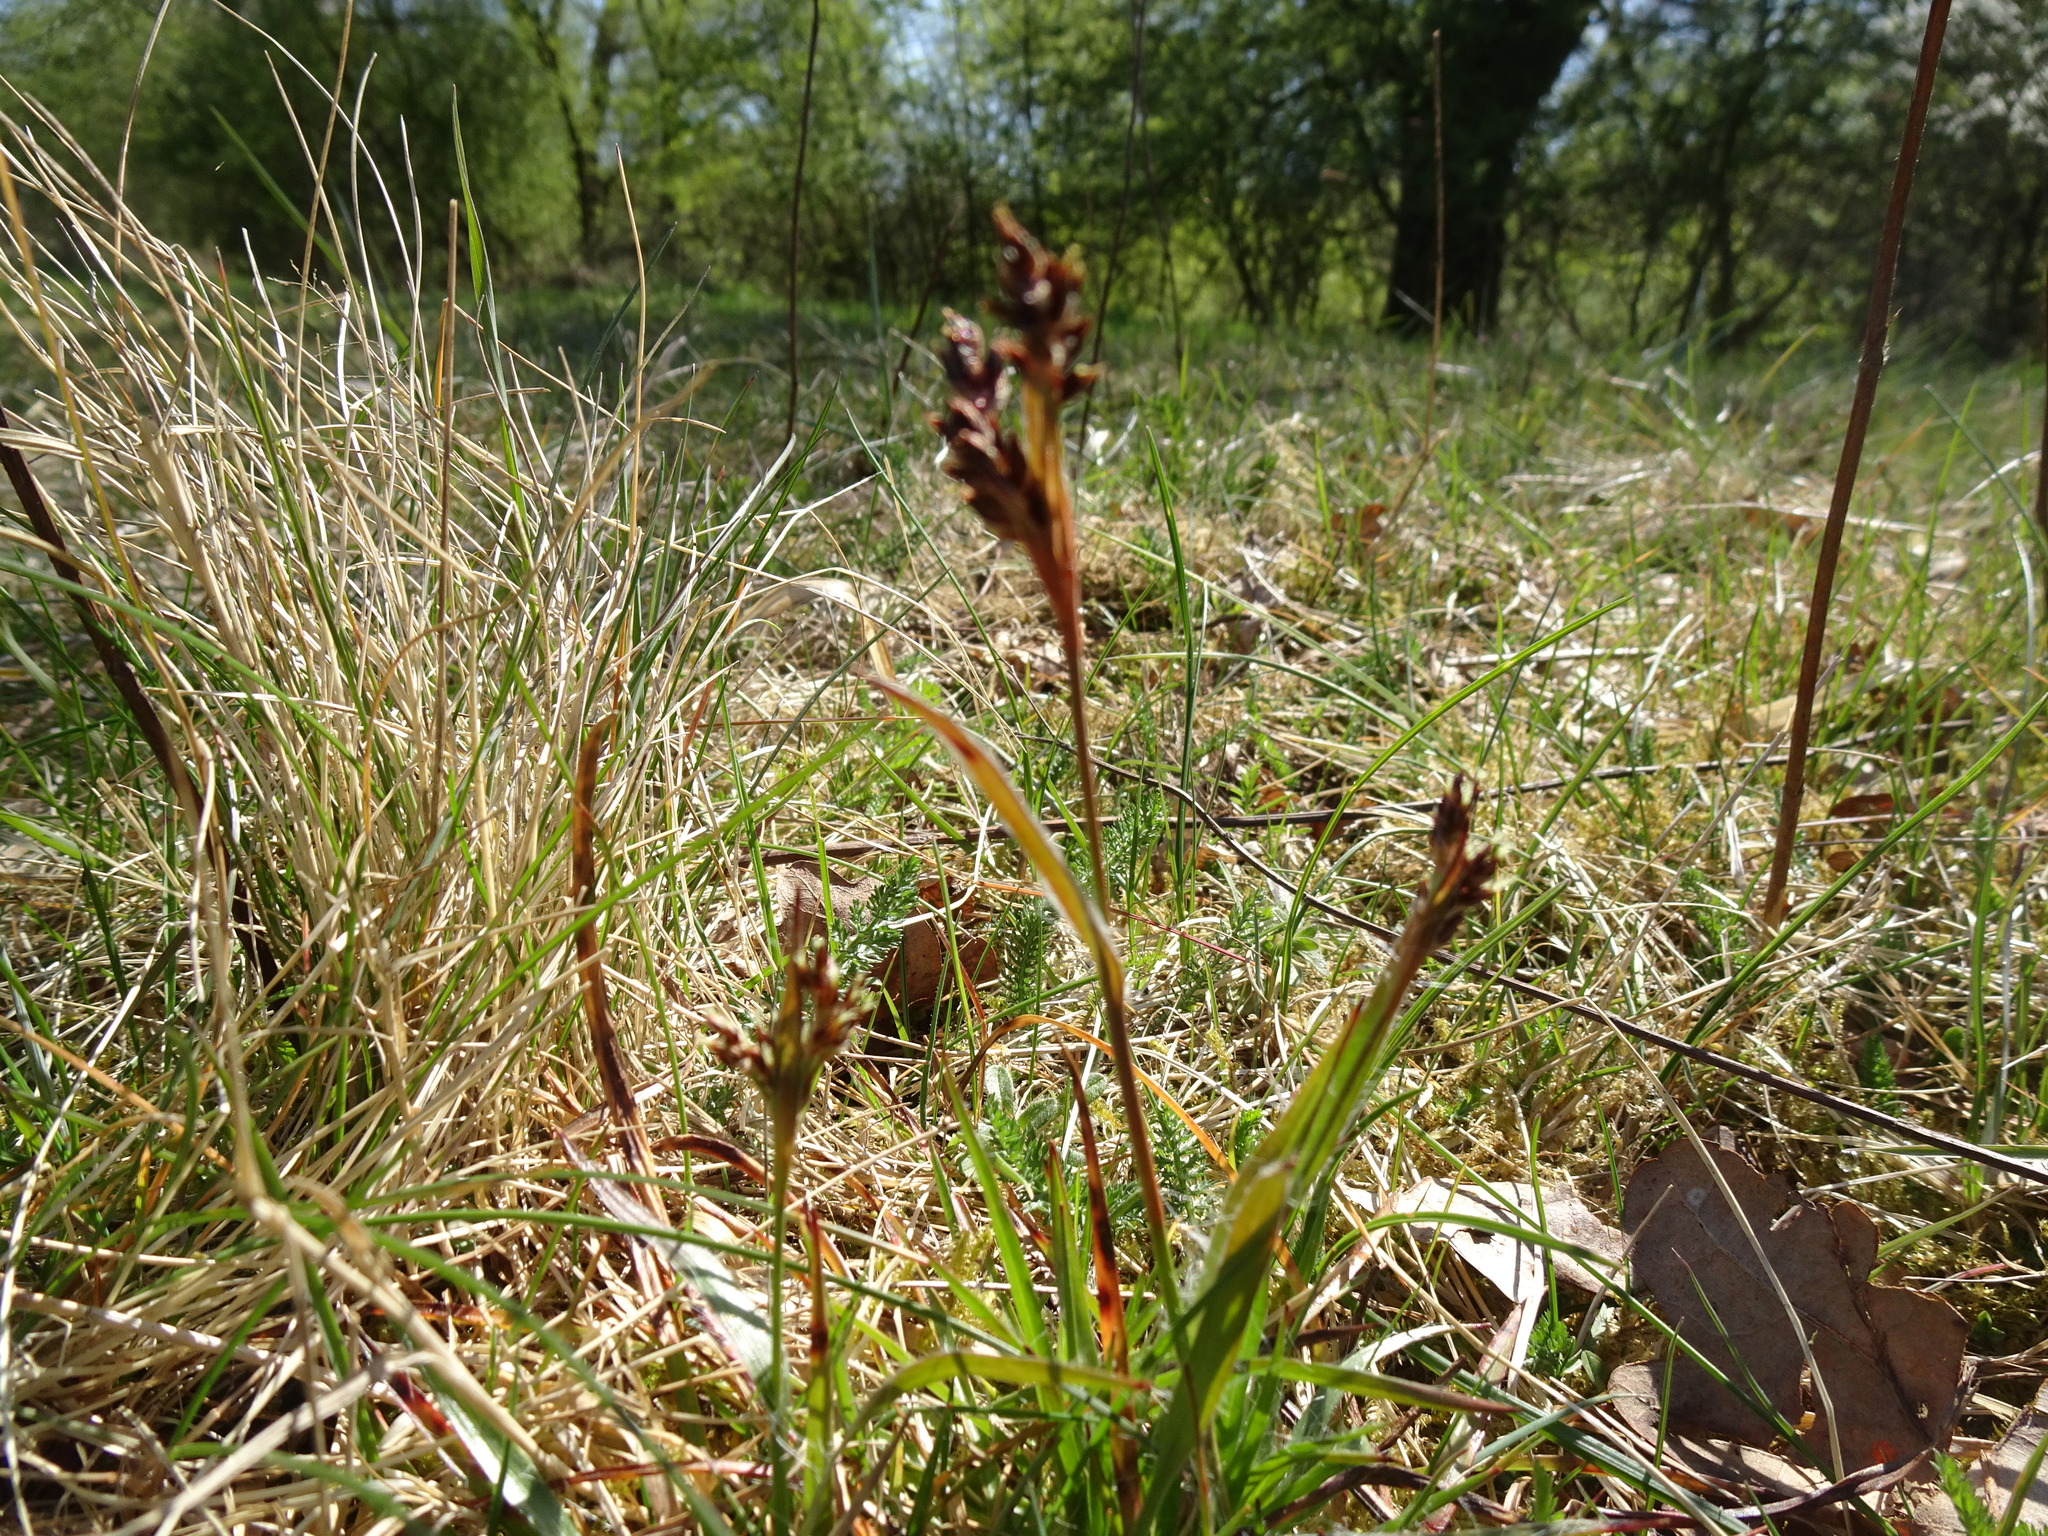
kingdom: Plantae
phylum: Tracheophyta
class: Liliopsida
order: Poales
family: Juncaceae
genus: Luzula
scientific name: Luzula campestris
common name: Field wood-rush
